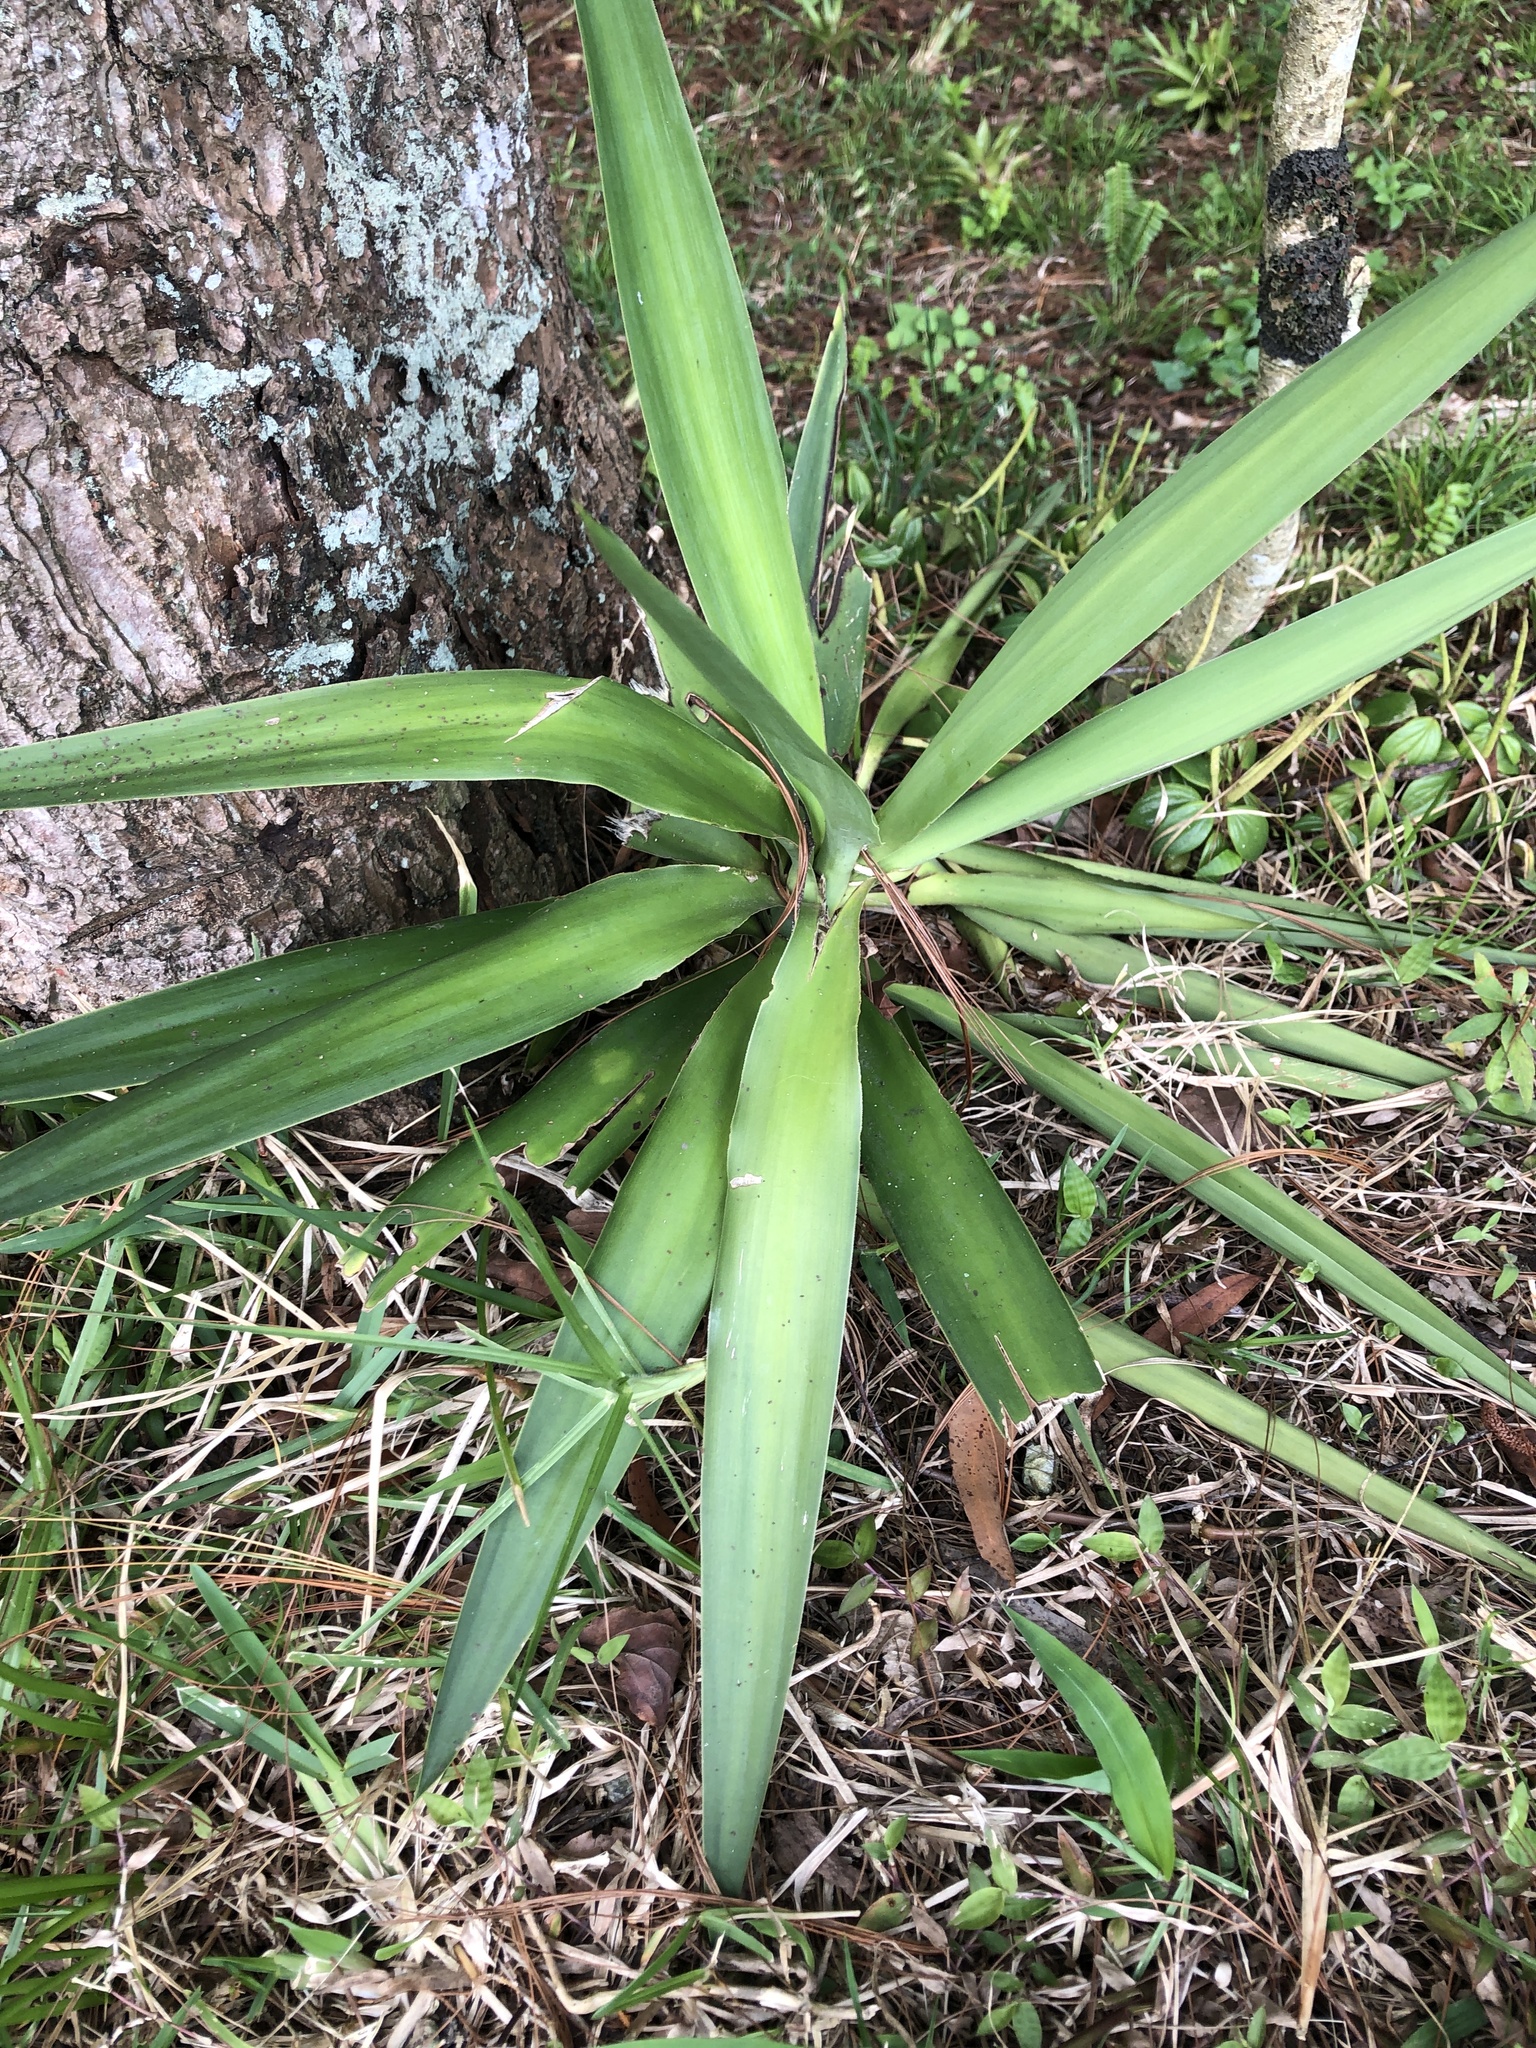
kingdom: Plantae
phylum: Tracheophyta
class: Liliopsida
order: Asparagales
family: Asparagaceae
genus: Yucca
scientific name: Yucca gigantea
